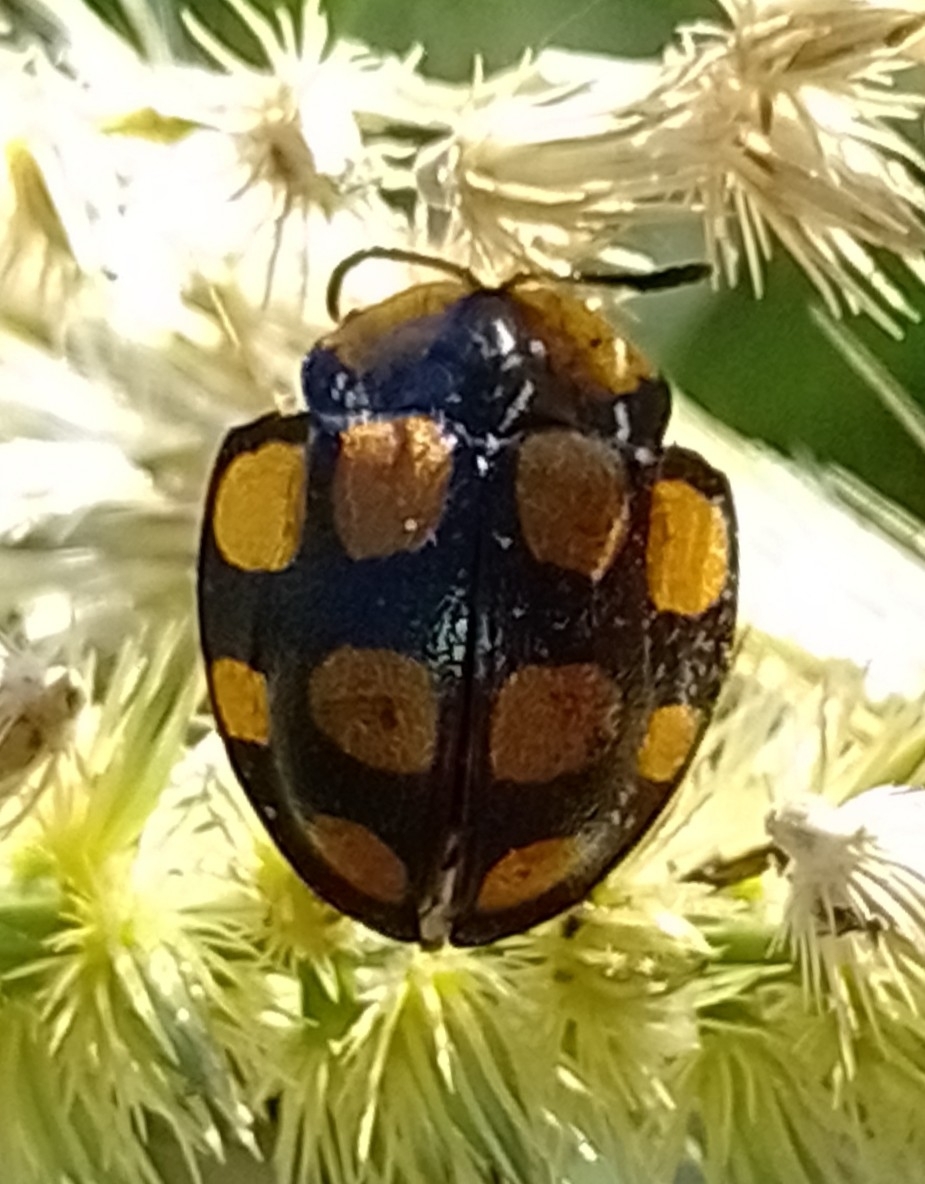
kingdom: Animalia
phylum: Arthropoda
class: Insecta
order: Coleoptera
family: Chrysomelidae
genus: Botanochara
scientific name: Botanochara decempustulata
